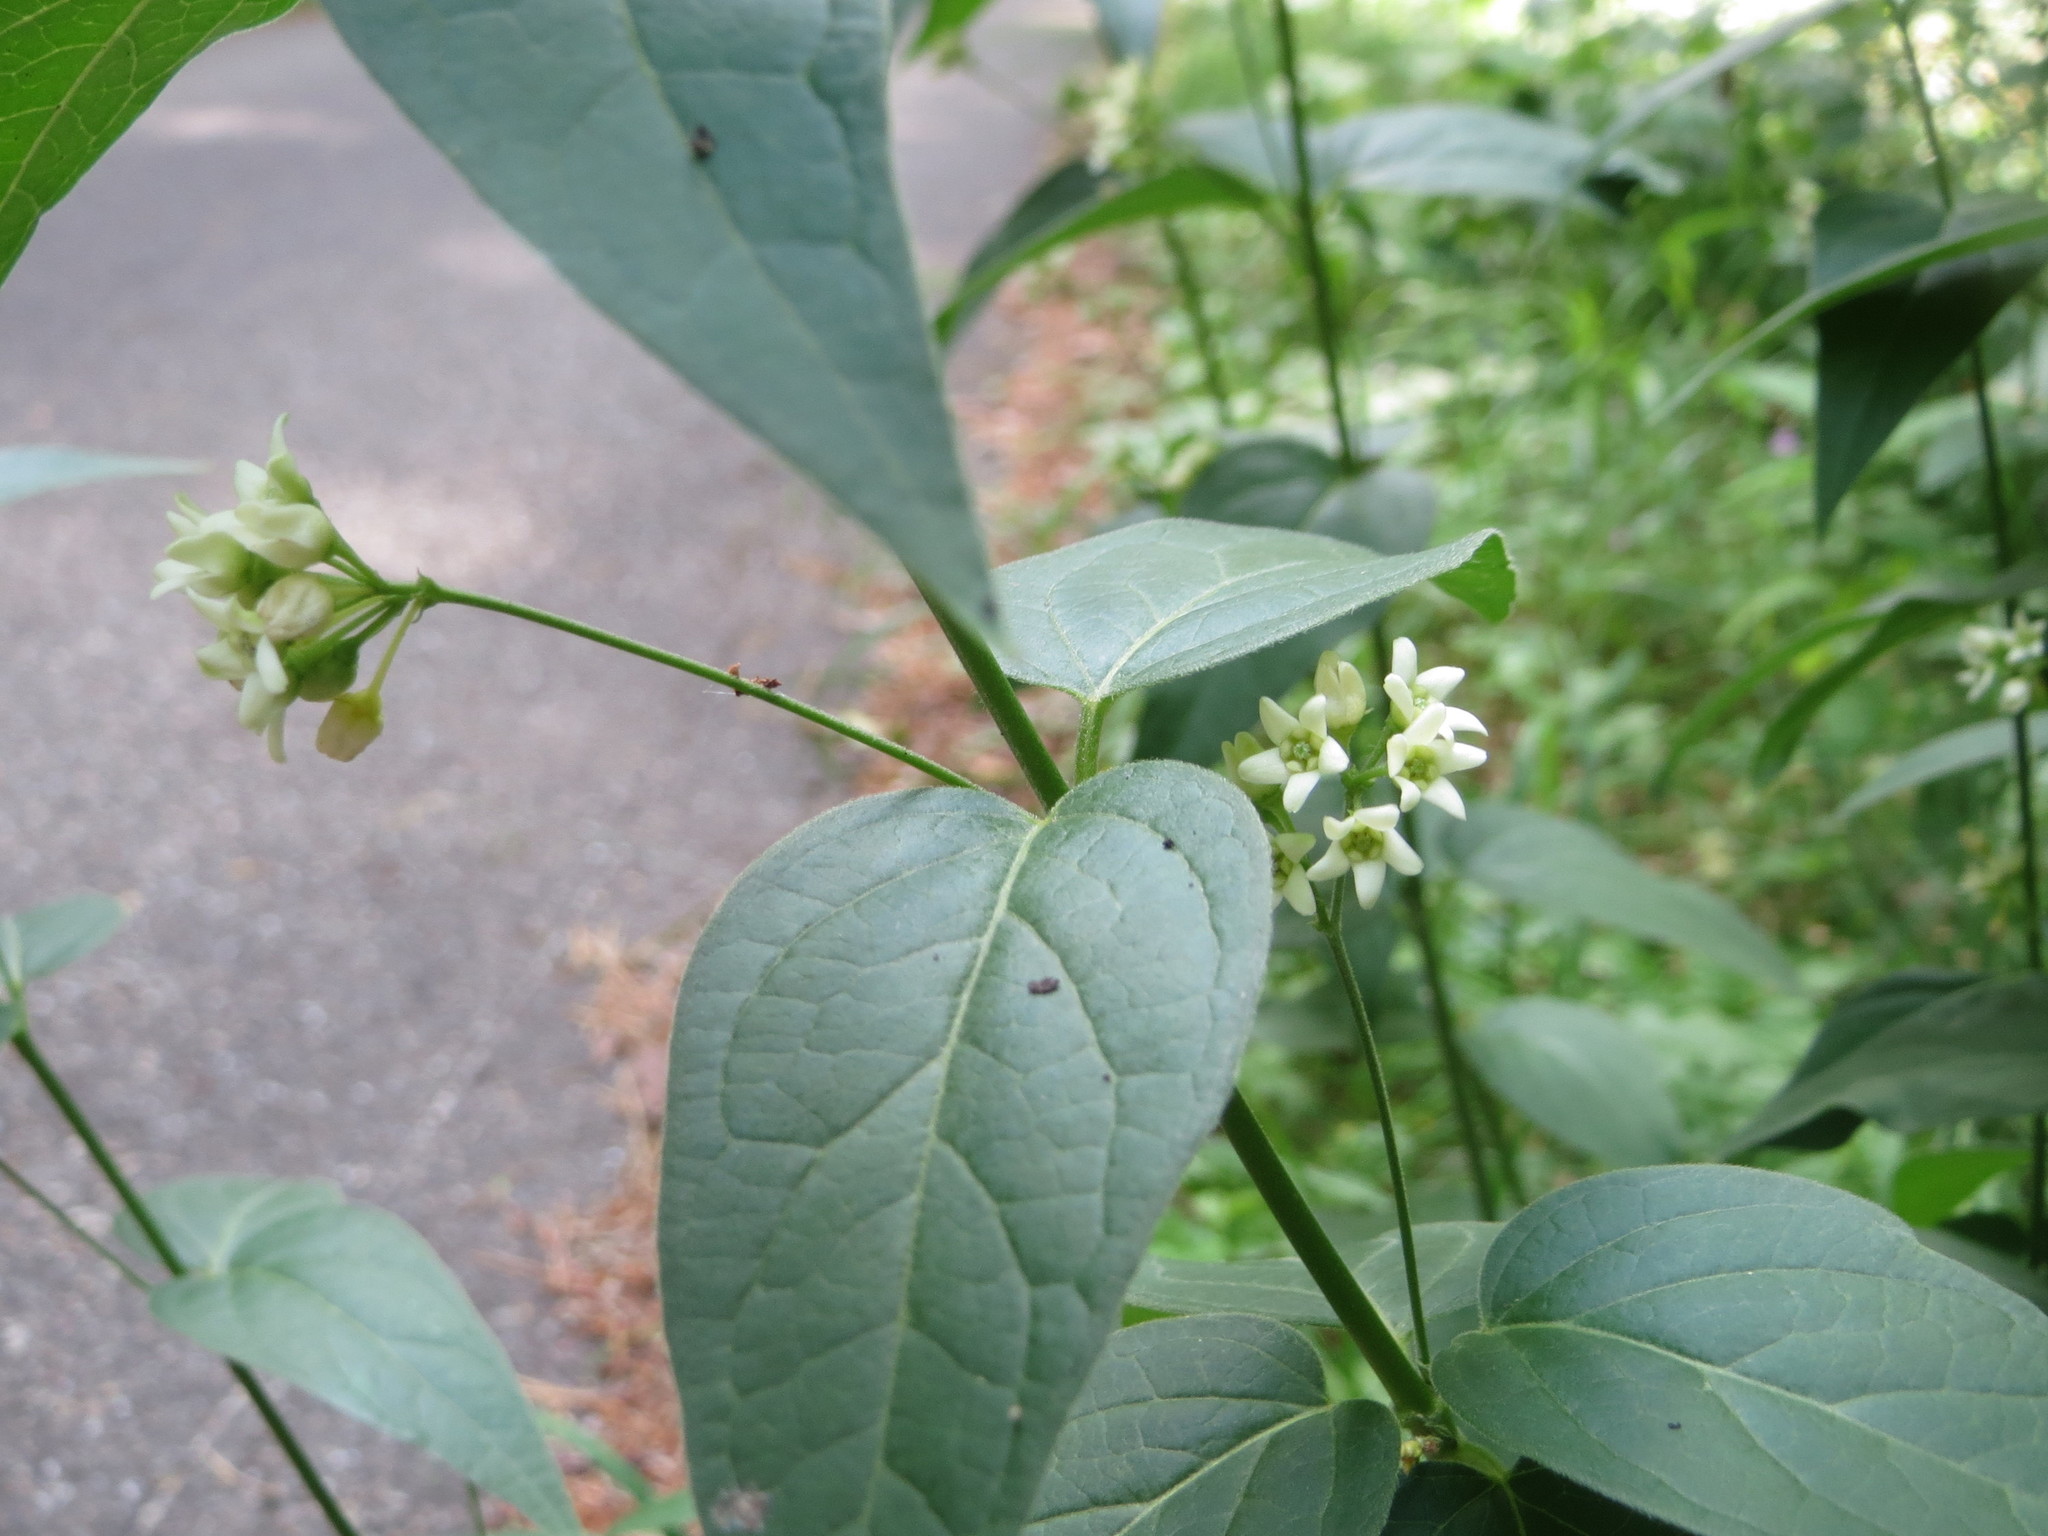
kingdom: Plantae
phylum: Tracheophyta
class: Magnoliopsida
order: Gentianales
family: Apocynaceae
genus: Vincetoxicum
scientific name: Vincetoxicum hirundinaria
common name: White swallowwort
